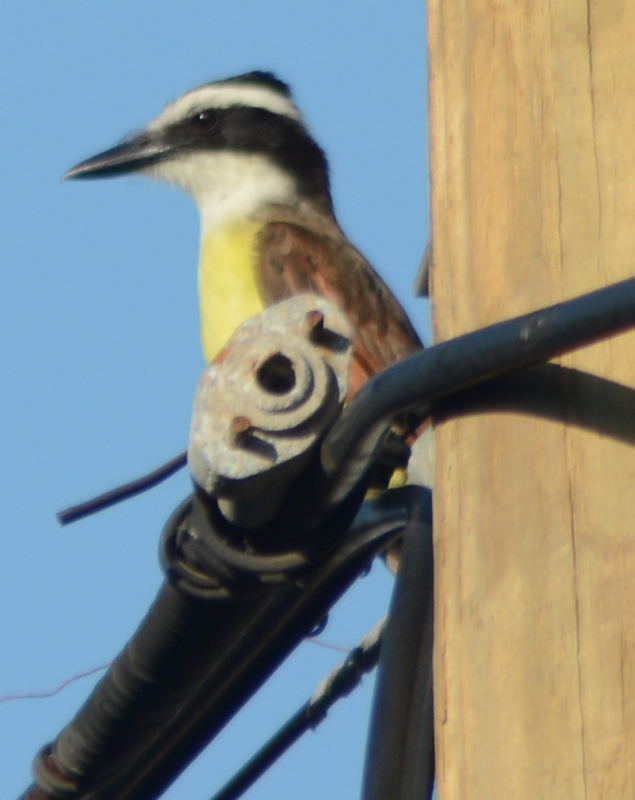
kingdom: Animalia
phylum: Chordata
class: Aves
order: Passeriformes
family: Tyrannidae
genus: Pitangus
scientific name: Pitangus sulphuratus
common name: Great kiskadee
